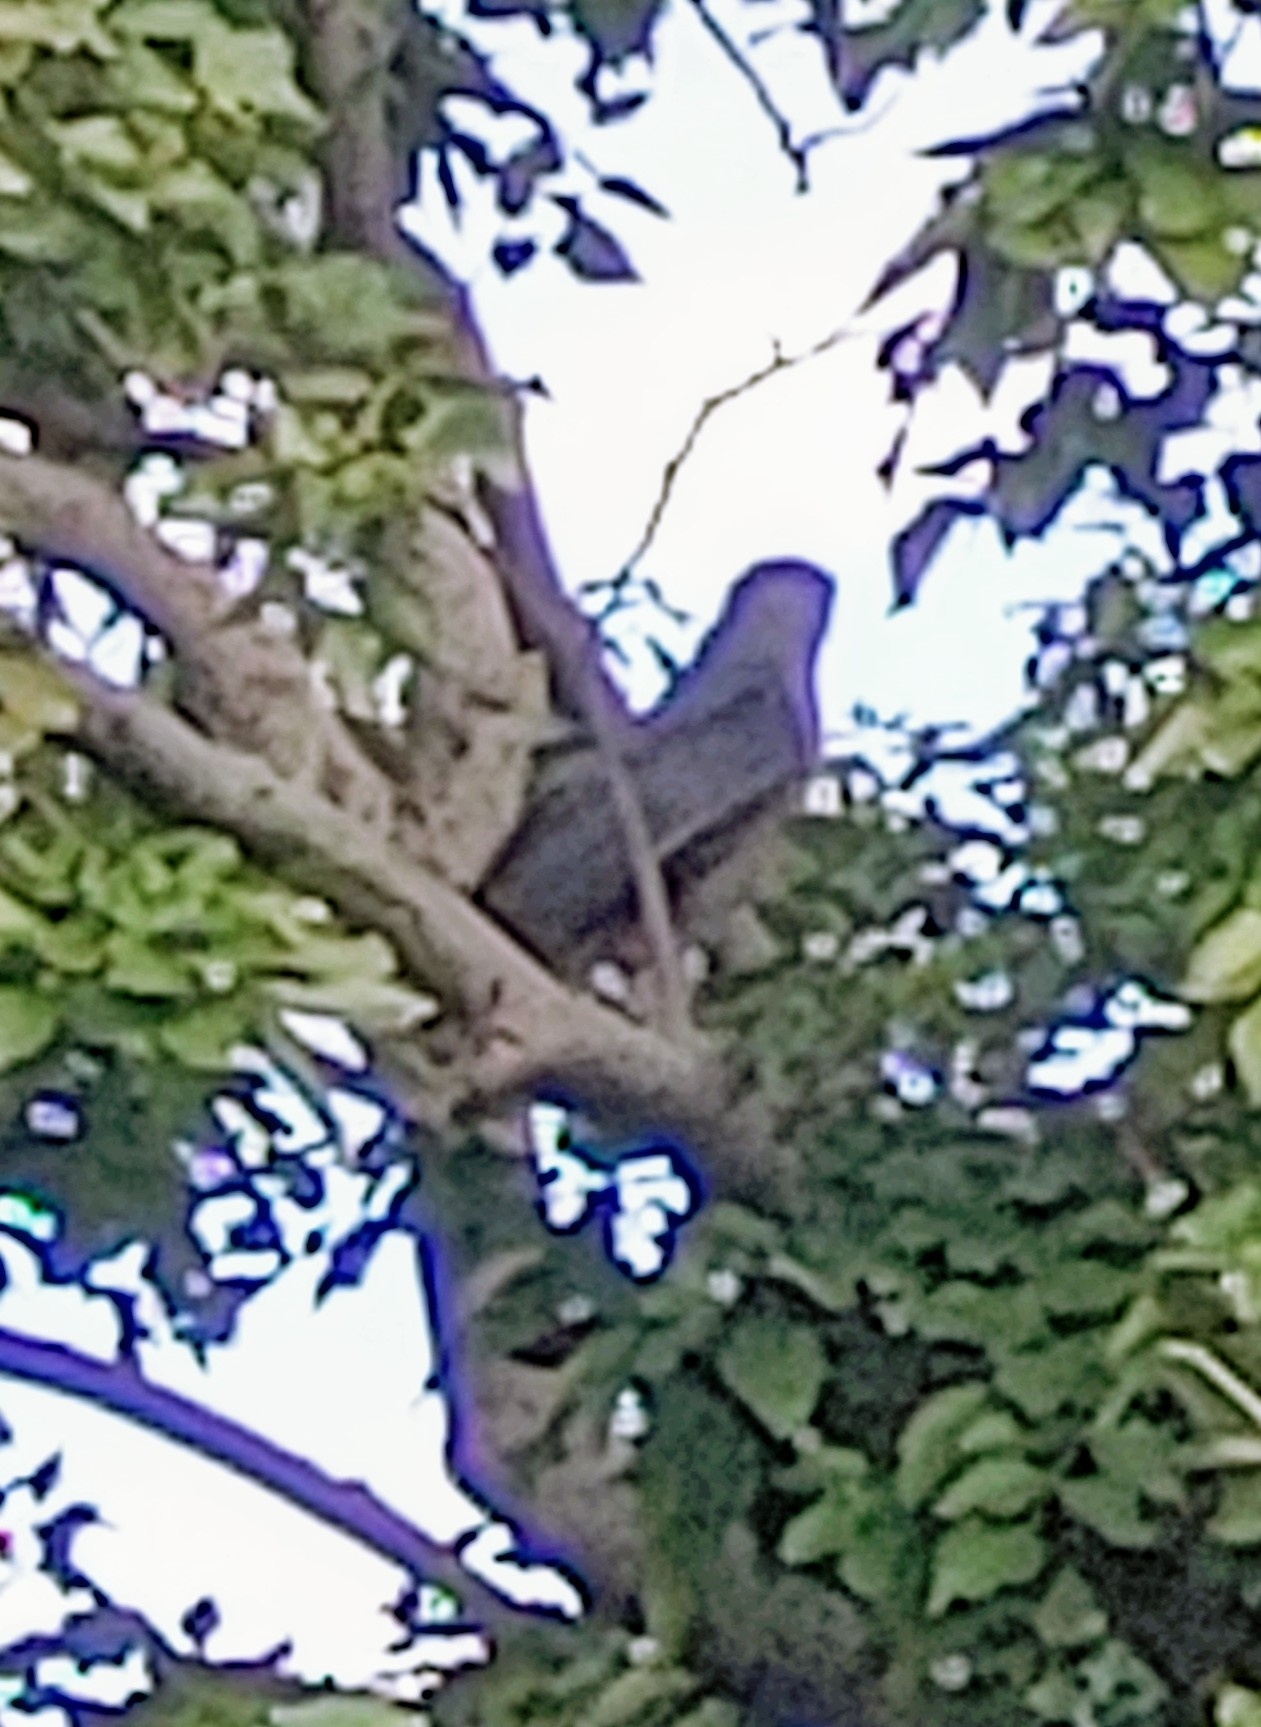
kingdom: Animalia
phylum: Chordata
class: Aves
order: Accipitriformes
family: Accipitridae
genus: Accipiter
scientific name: Accipiter cooperii
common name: Cooper's hawk
